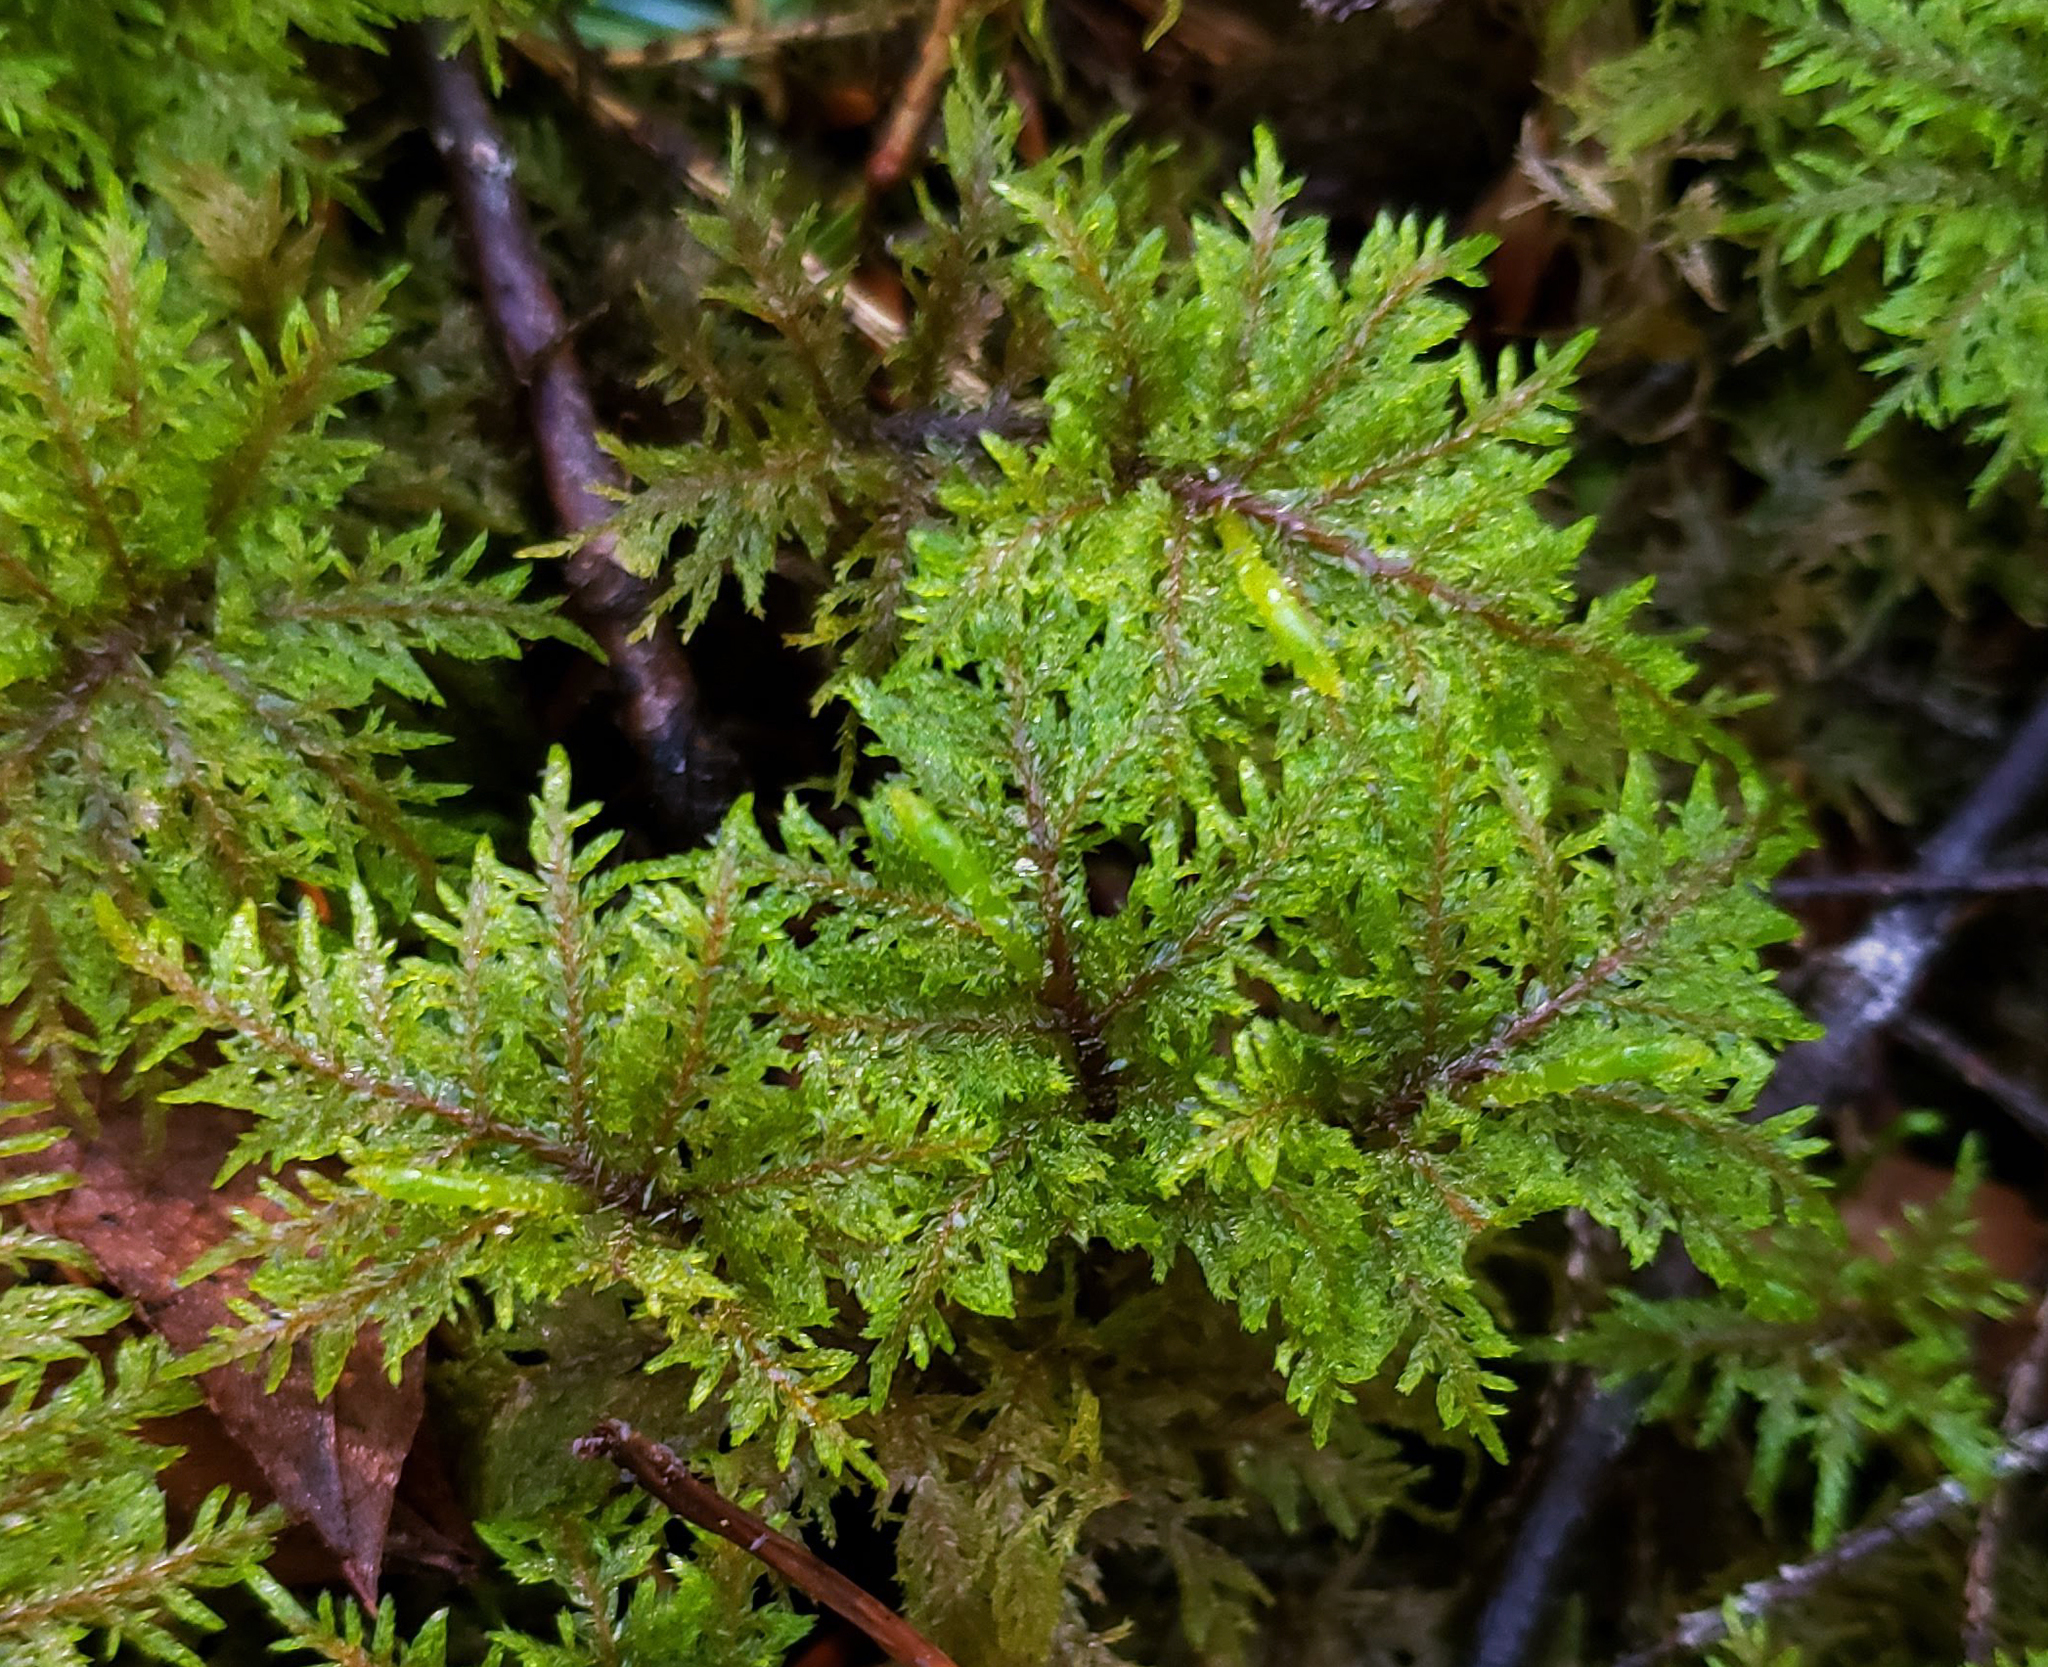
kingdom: Plantae
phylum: Bryophyta
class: Bryopsida
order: Hypnales
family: Hylocomiaceae
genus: Hylocomium
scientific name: Hylocomium splendens
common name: Stairstep moss
